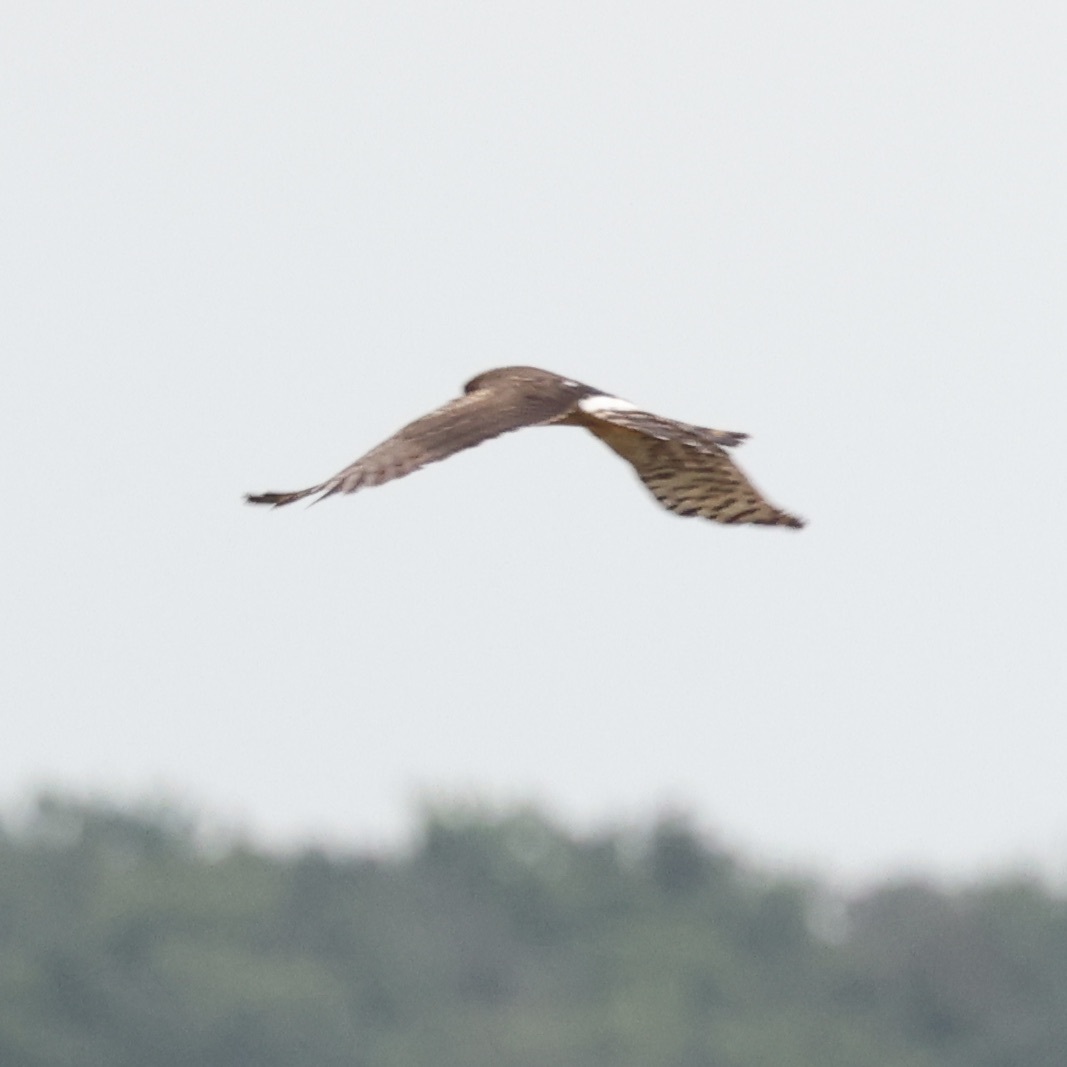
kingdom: Animalia
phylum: Chordata
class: Aves
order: Accipitriformes
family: Accipitridae
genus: Circus
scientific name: Circus cyaneus
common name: Hen harrier
